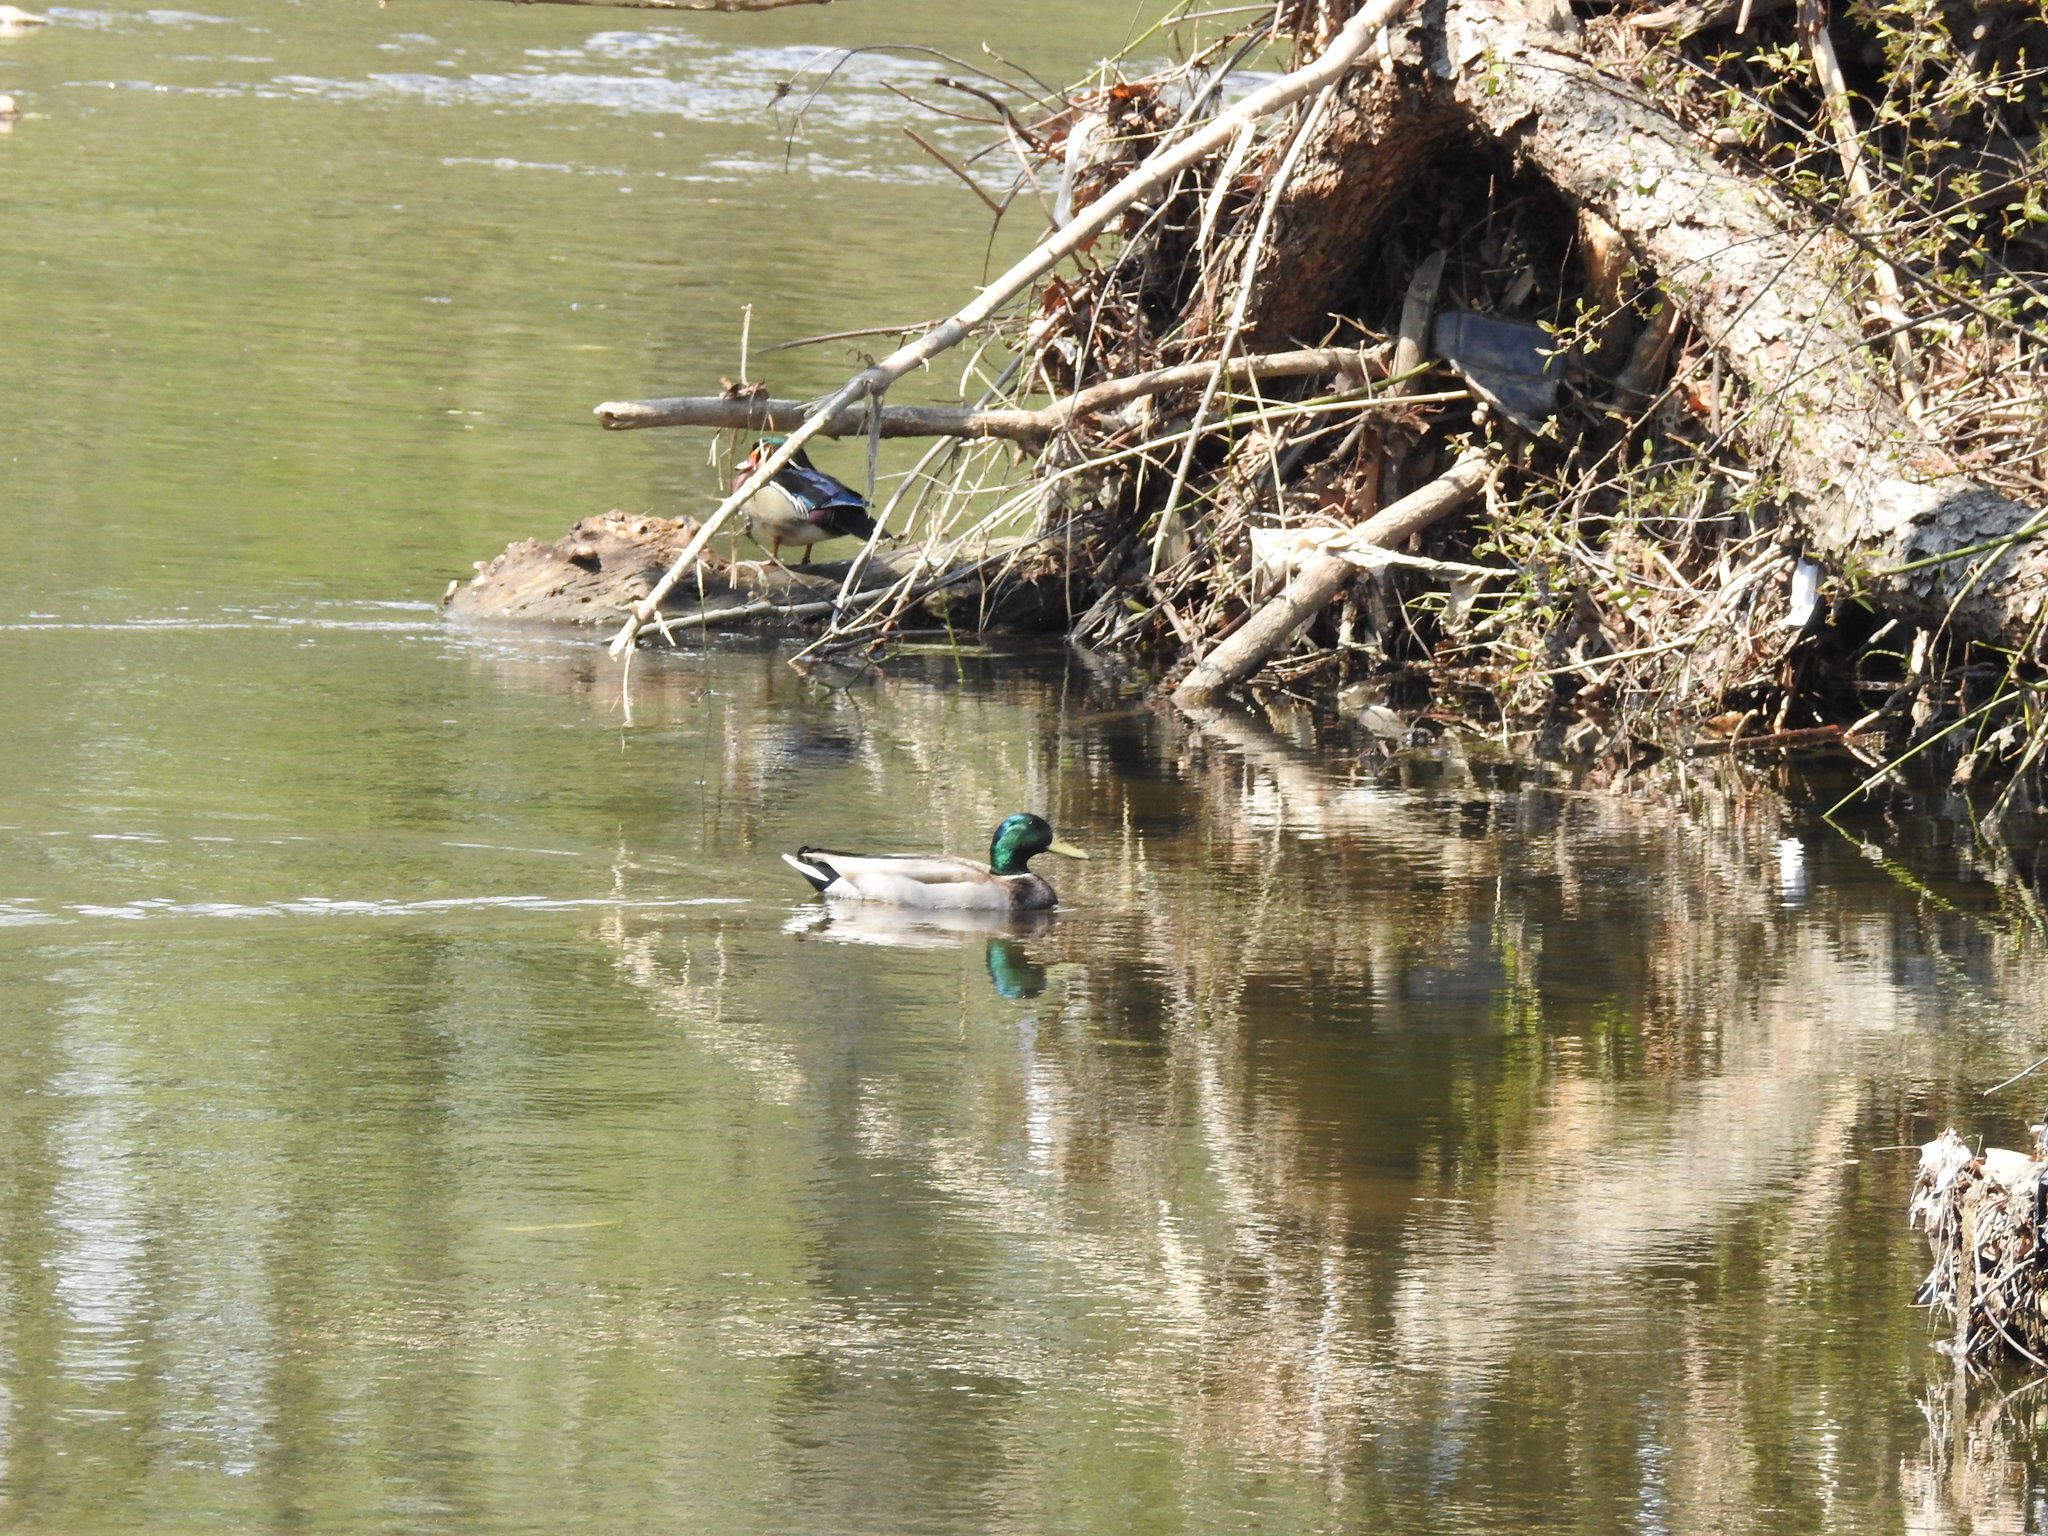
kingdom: Animalia
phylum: Chordata
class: Aves
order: Anseriformes
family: Anatidae
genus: Anas
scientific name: Anas platyrhynchos
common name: Mallard
